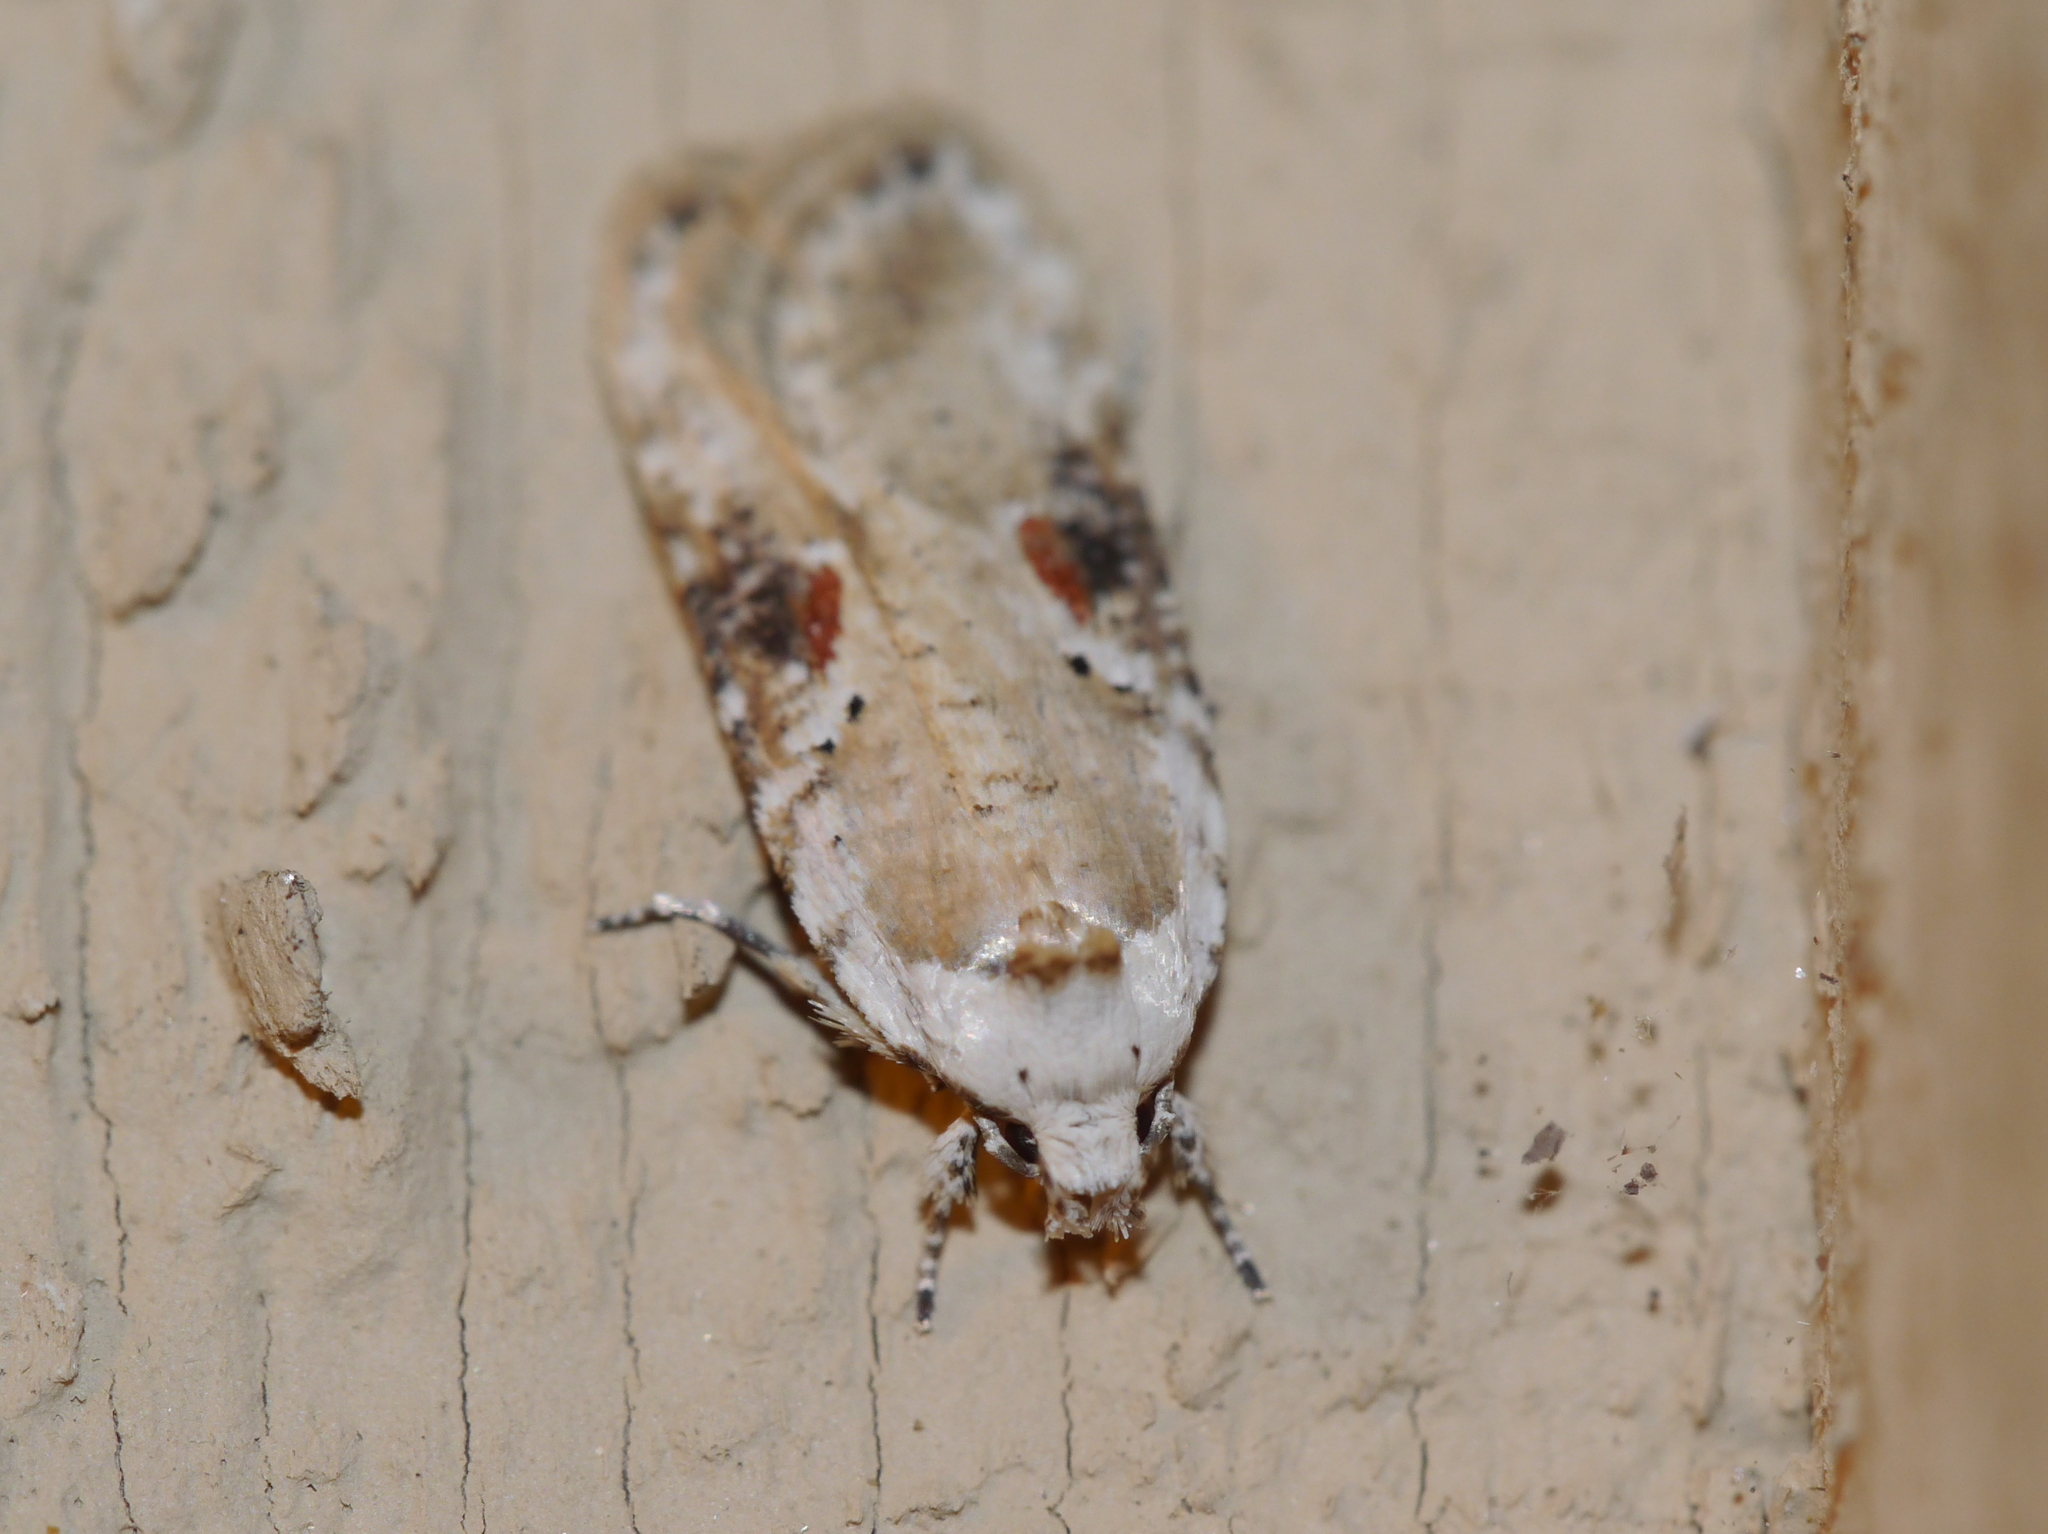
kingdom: Animalia
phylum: Arthropoda
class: Insecta
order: Lepidoptera
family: Depressariidae
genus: Agonopterix
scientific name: Agonopterix alstroemeriana
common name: Moth
